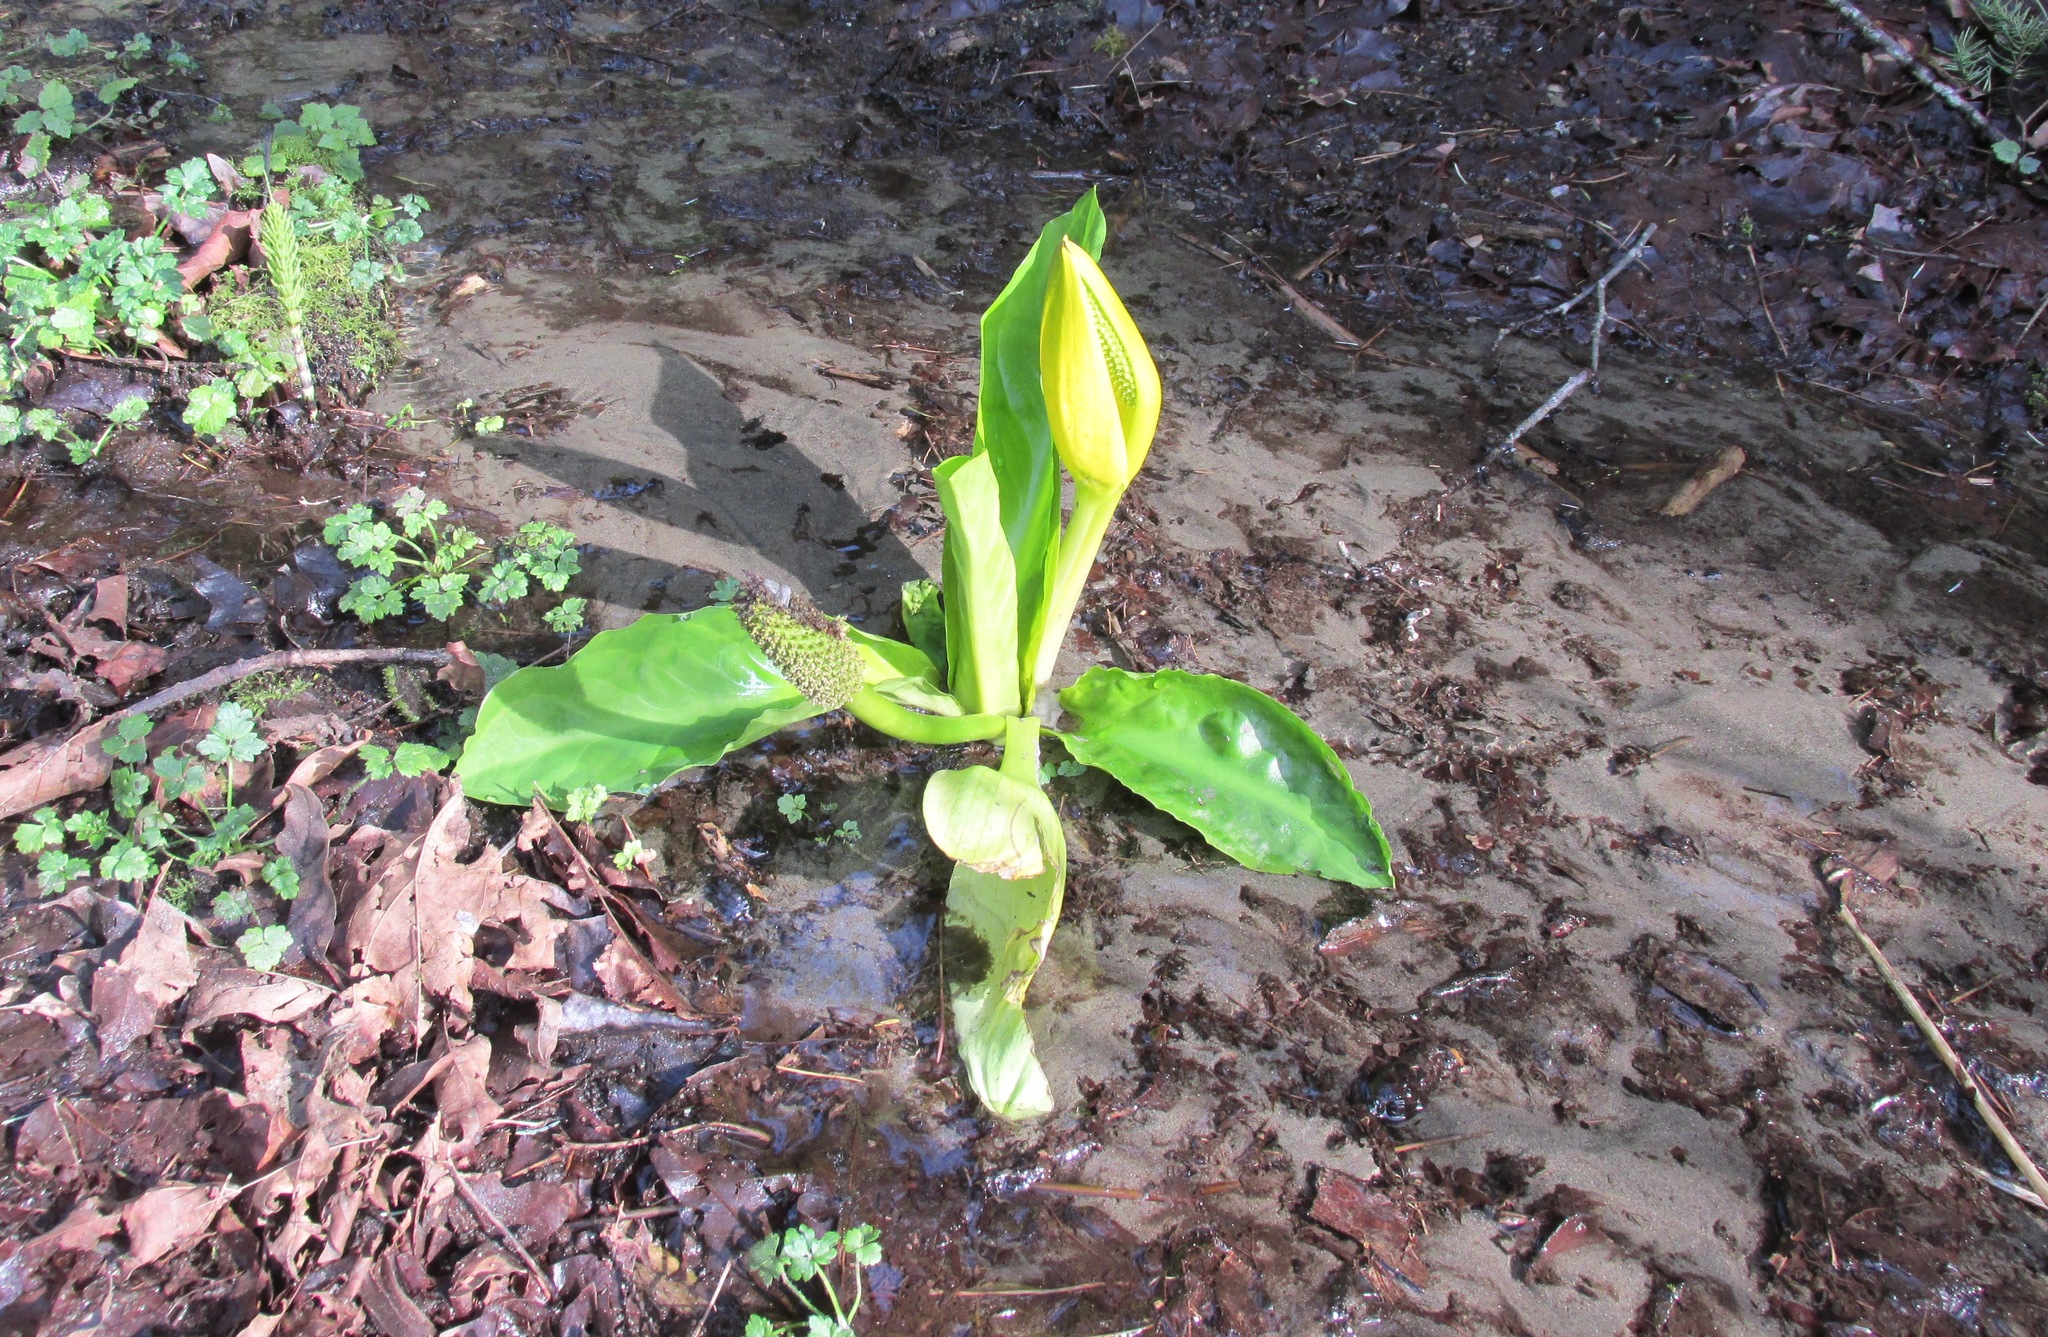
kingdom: Plantae
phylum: Tracheophyta
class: Liliopsida
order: Alismatales
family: Araceae
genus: Lysichiton
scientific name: Lysichiton americanus
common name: American skunk cabbage
